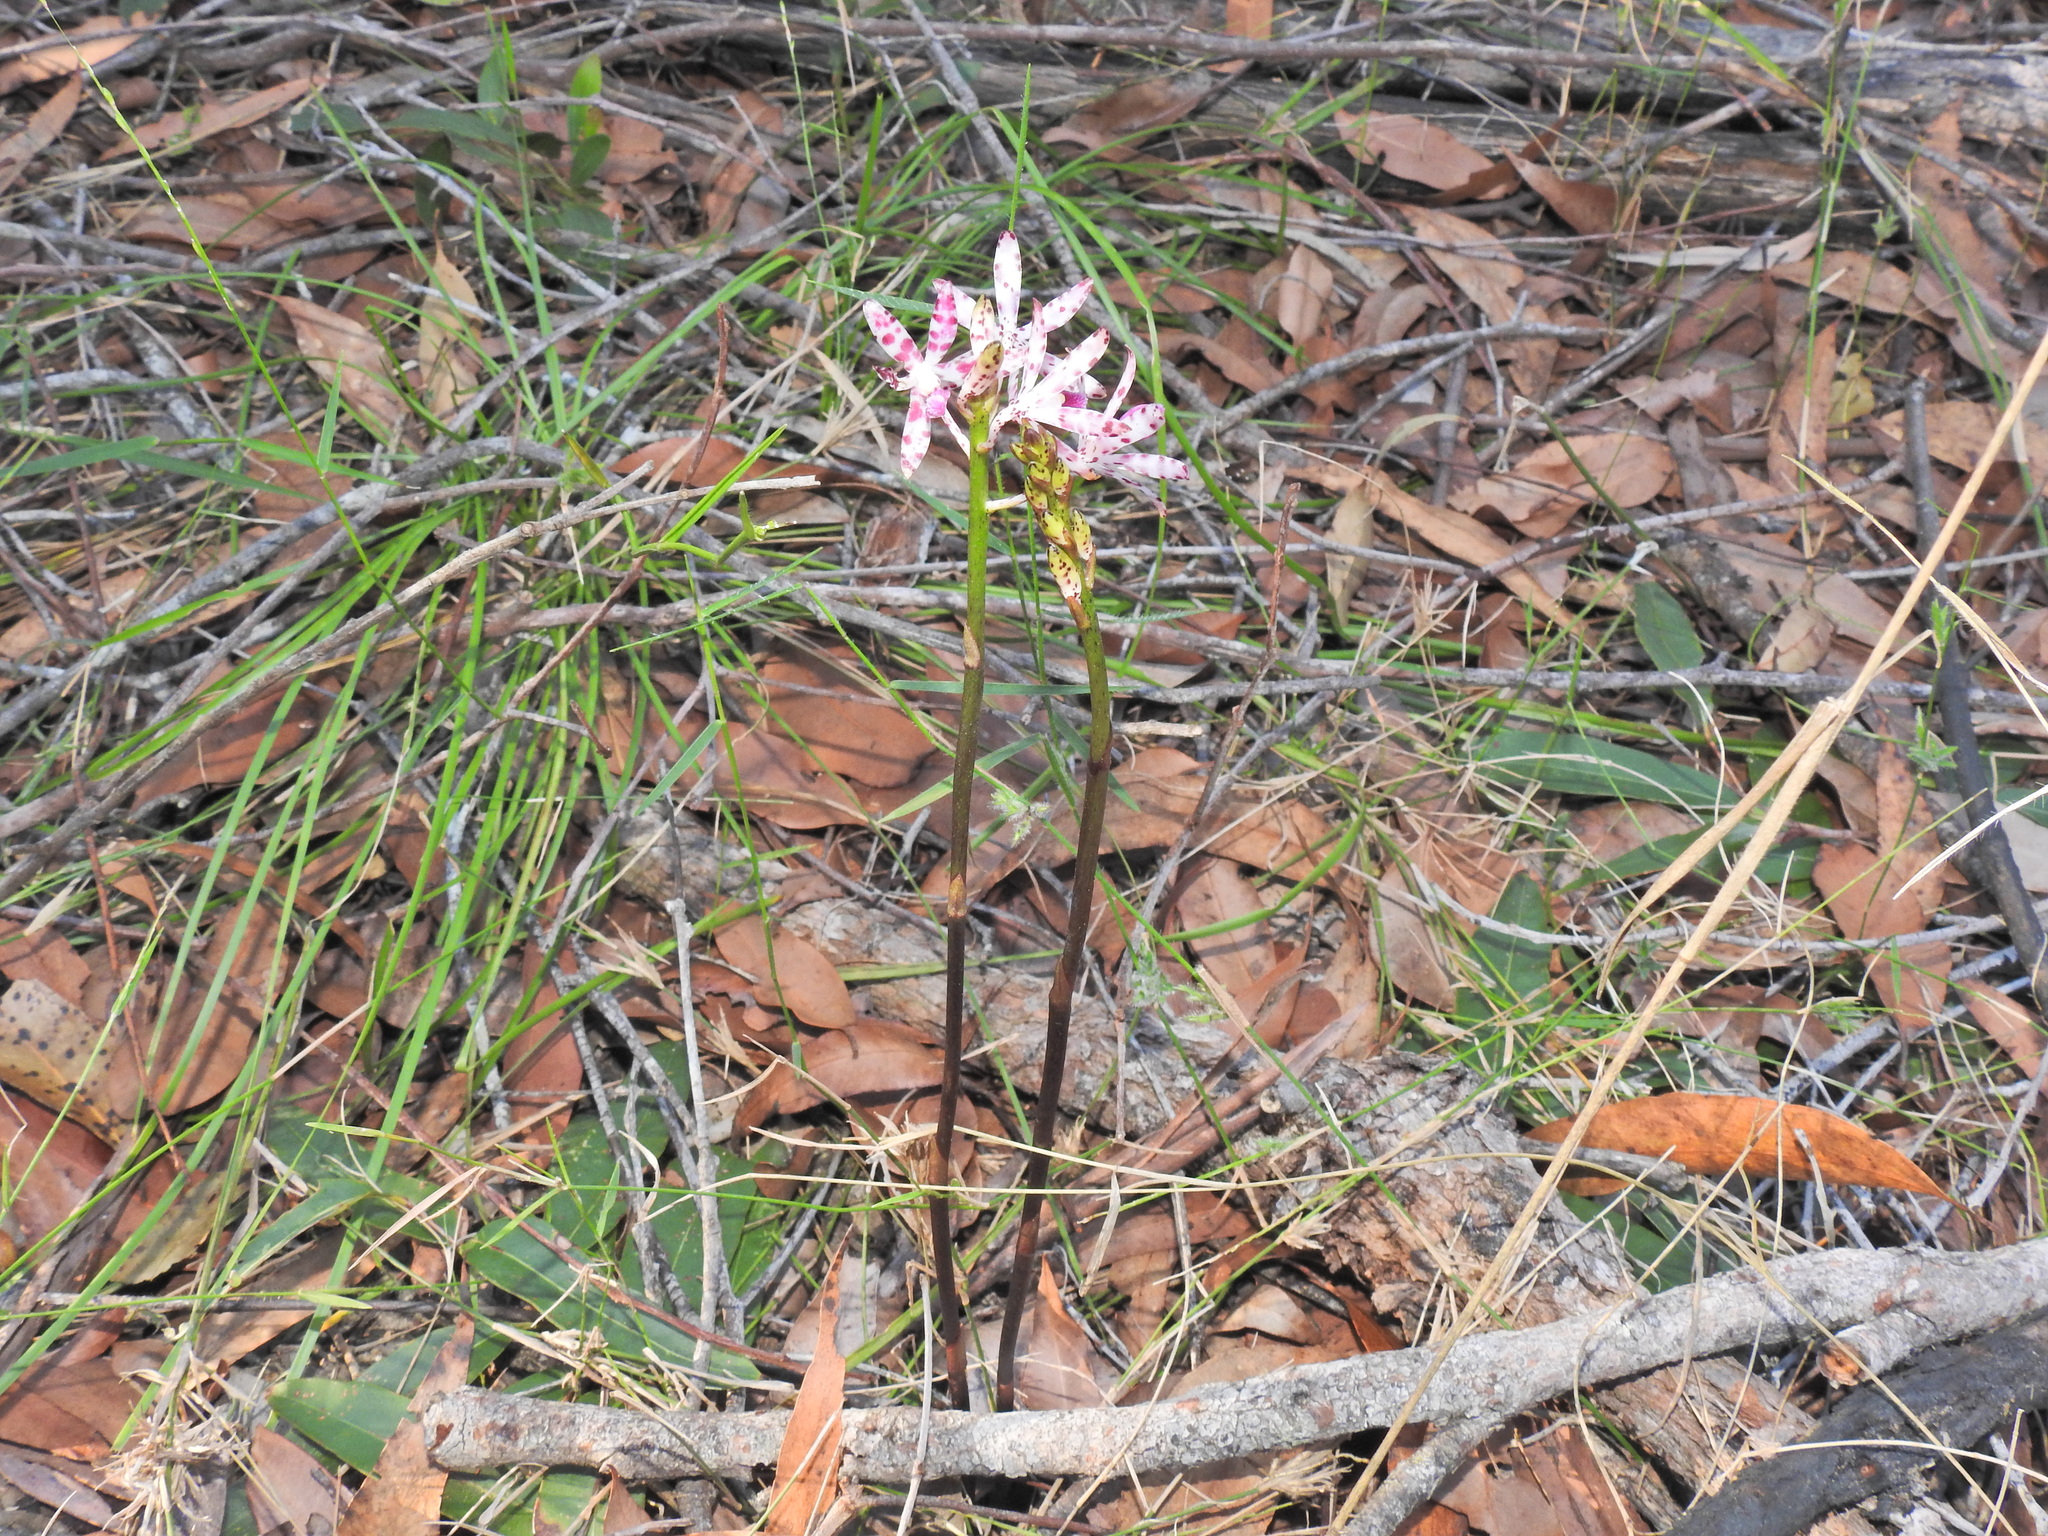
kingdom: Plantae
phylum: Tracheophyta
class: Liliopsida
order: Asparagales
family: Orchidaceae
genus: Dipodium
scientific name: Dipodium variegatum
